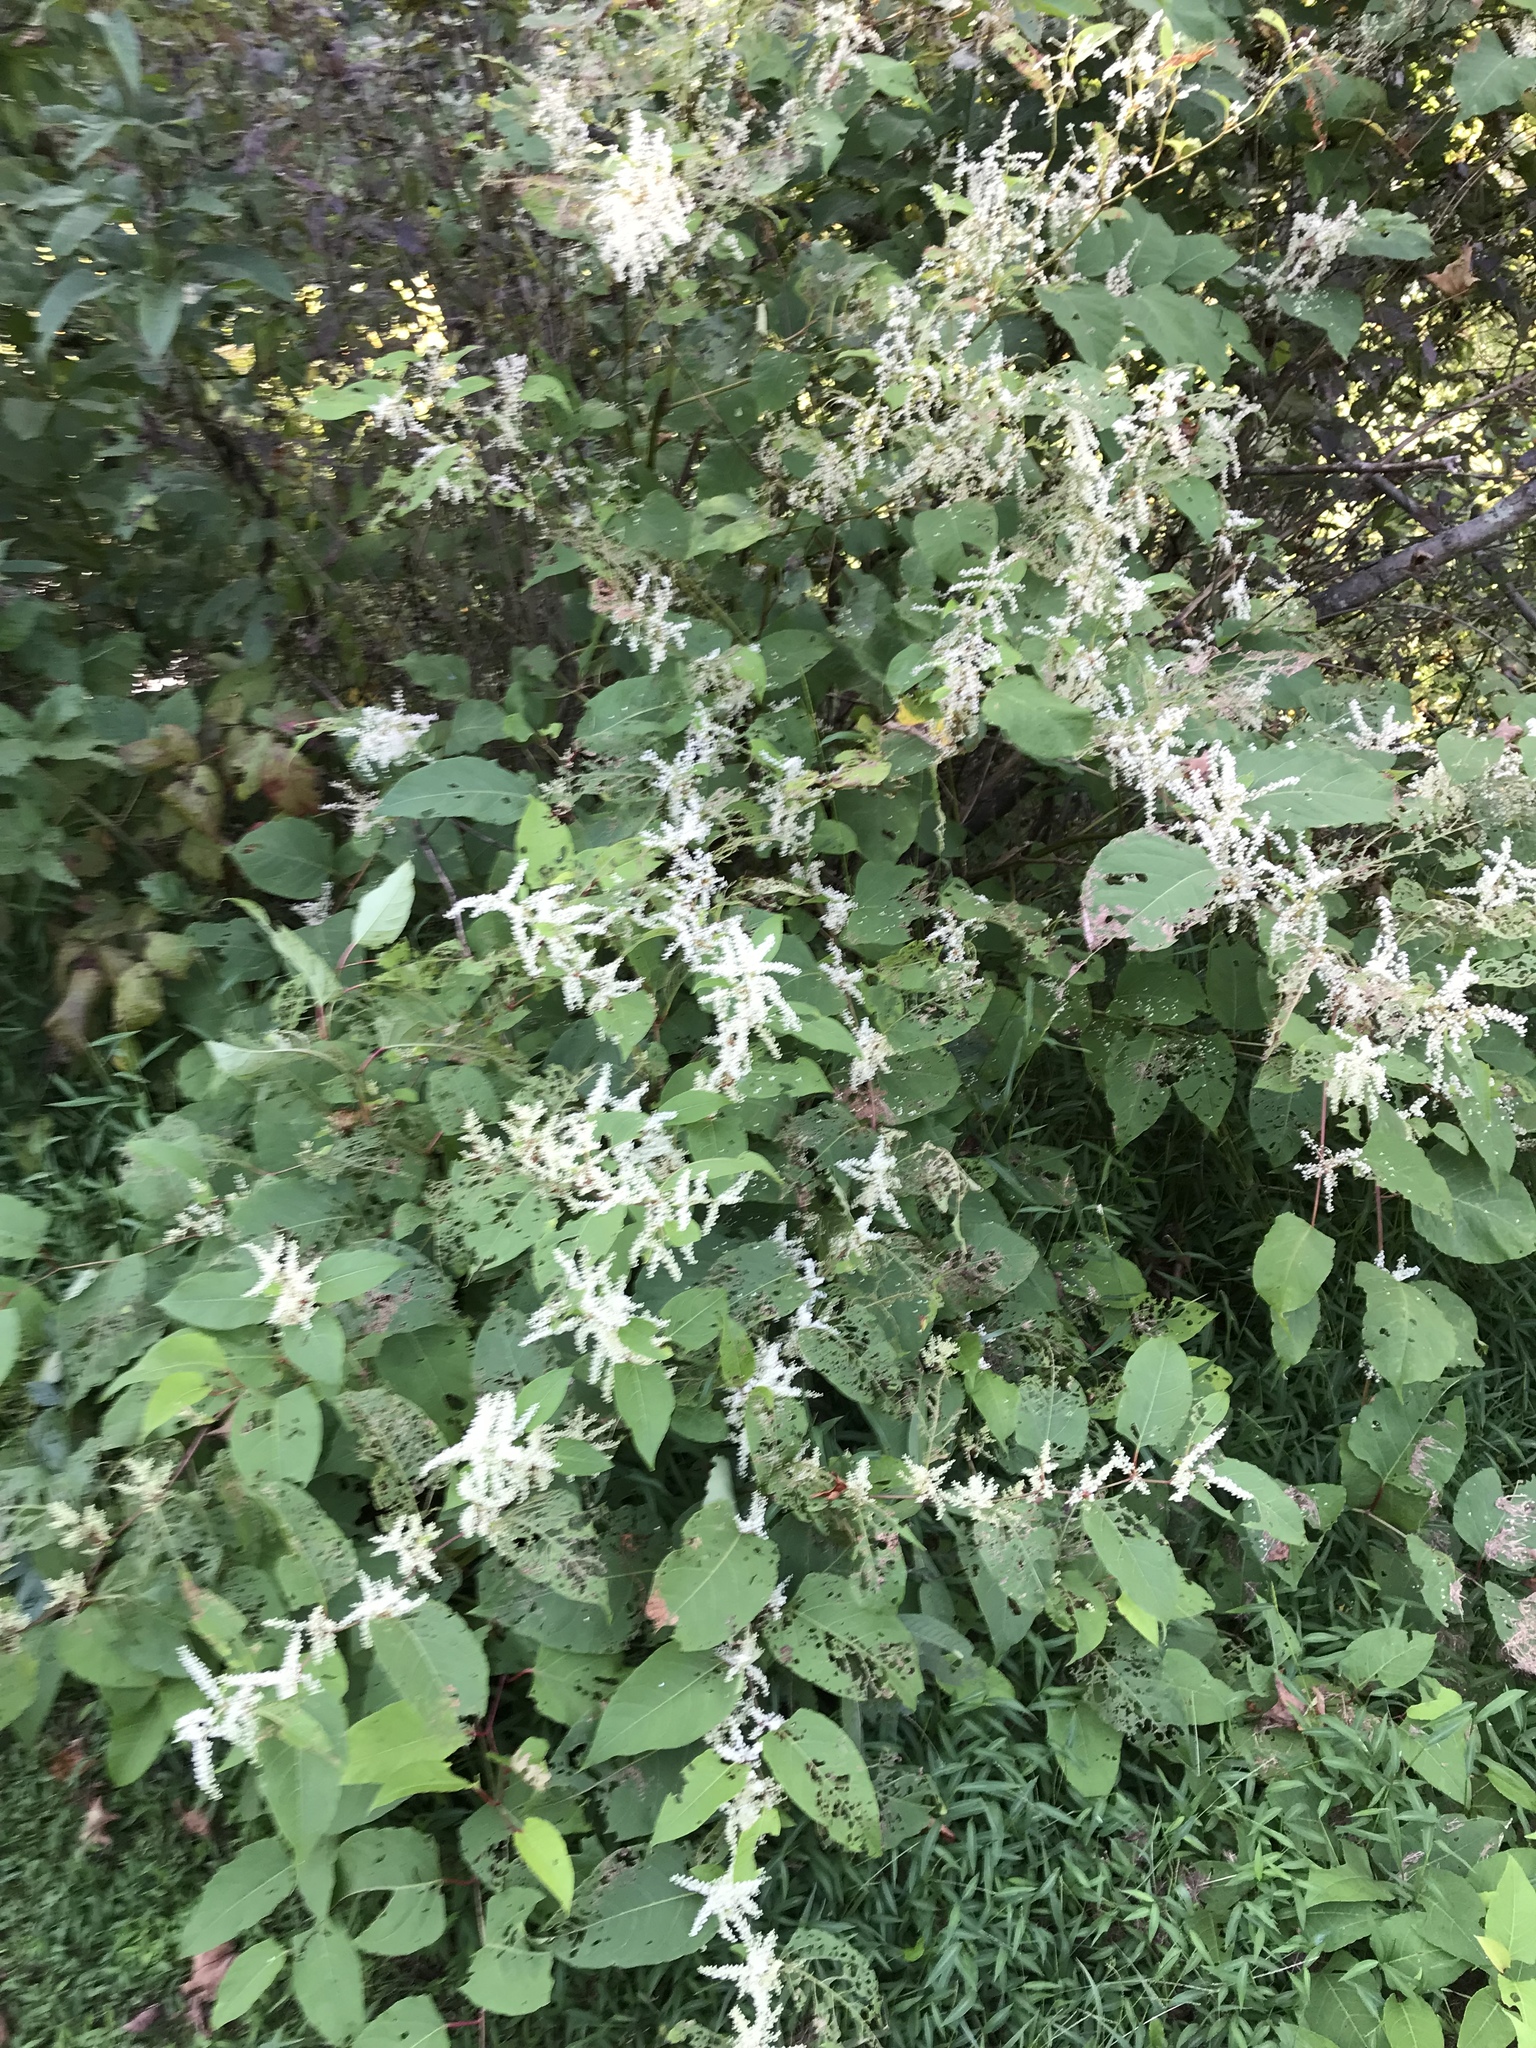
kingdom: Plantae
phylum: Tracheophyta
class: Magnoliopsida
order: Caryophyllales
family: Polygonaceae
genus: Reynoutria
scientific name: Reynoutria japonica
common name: Japanese knotweed
